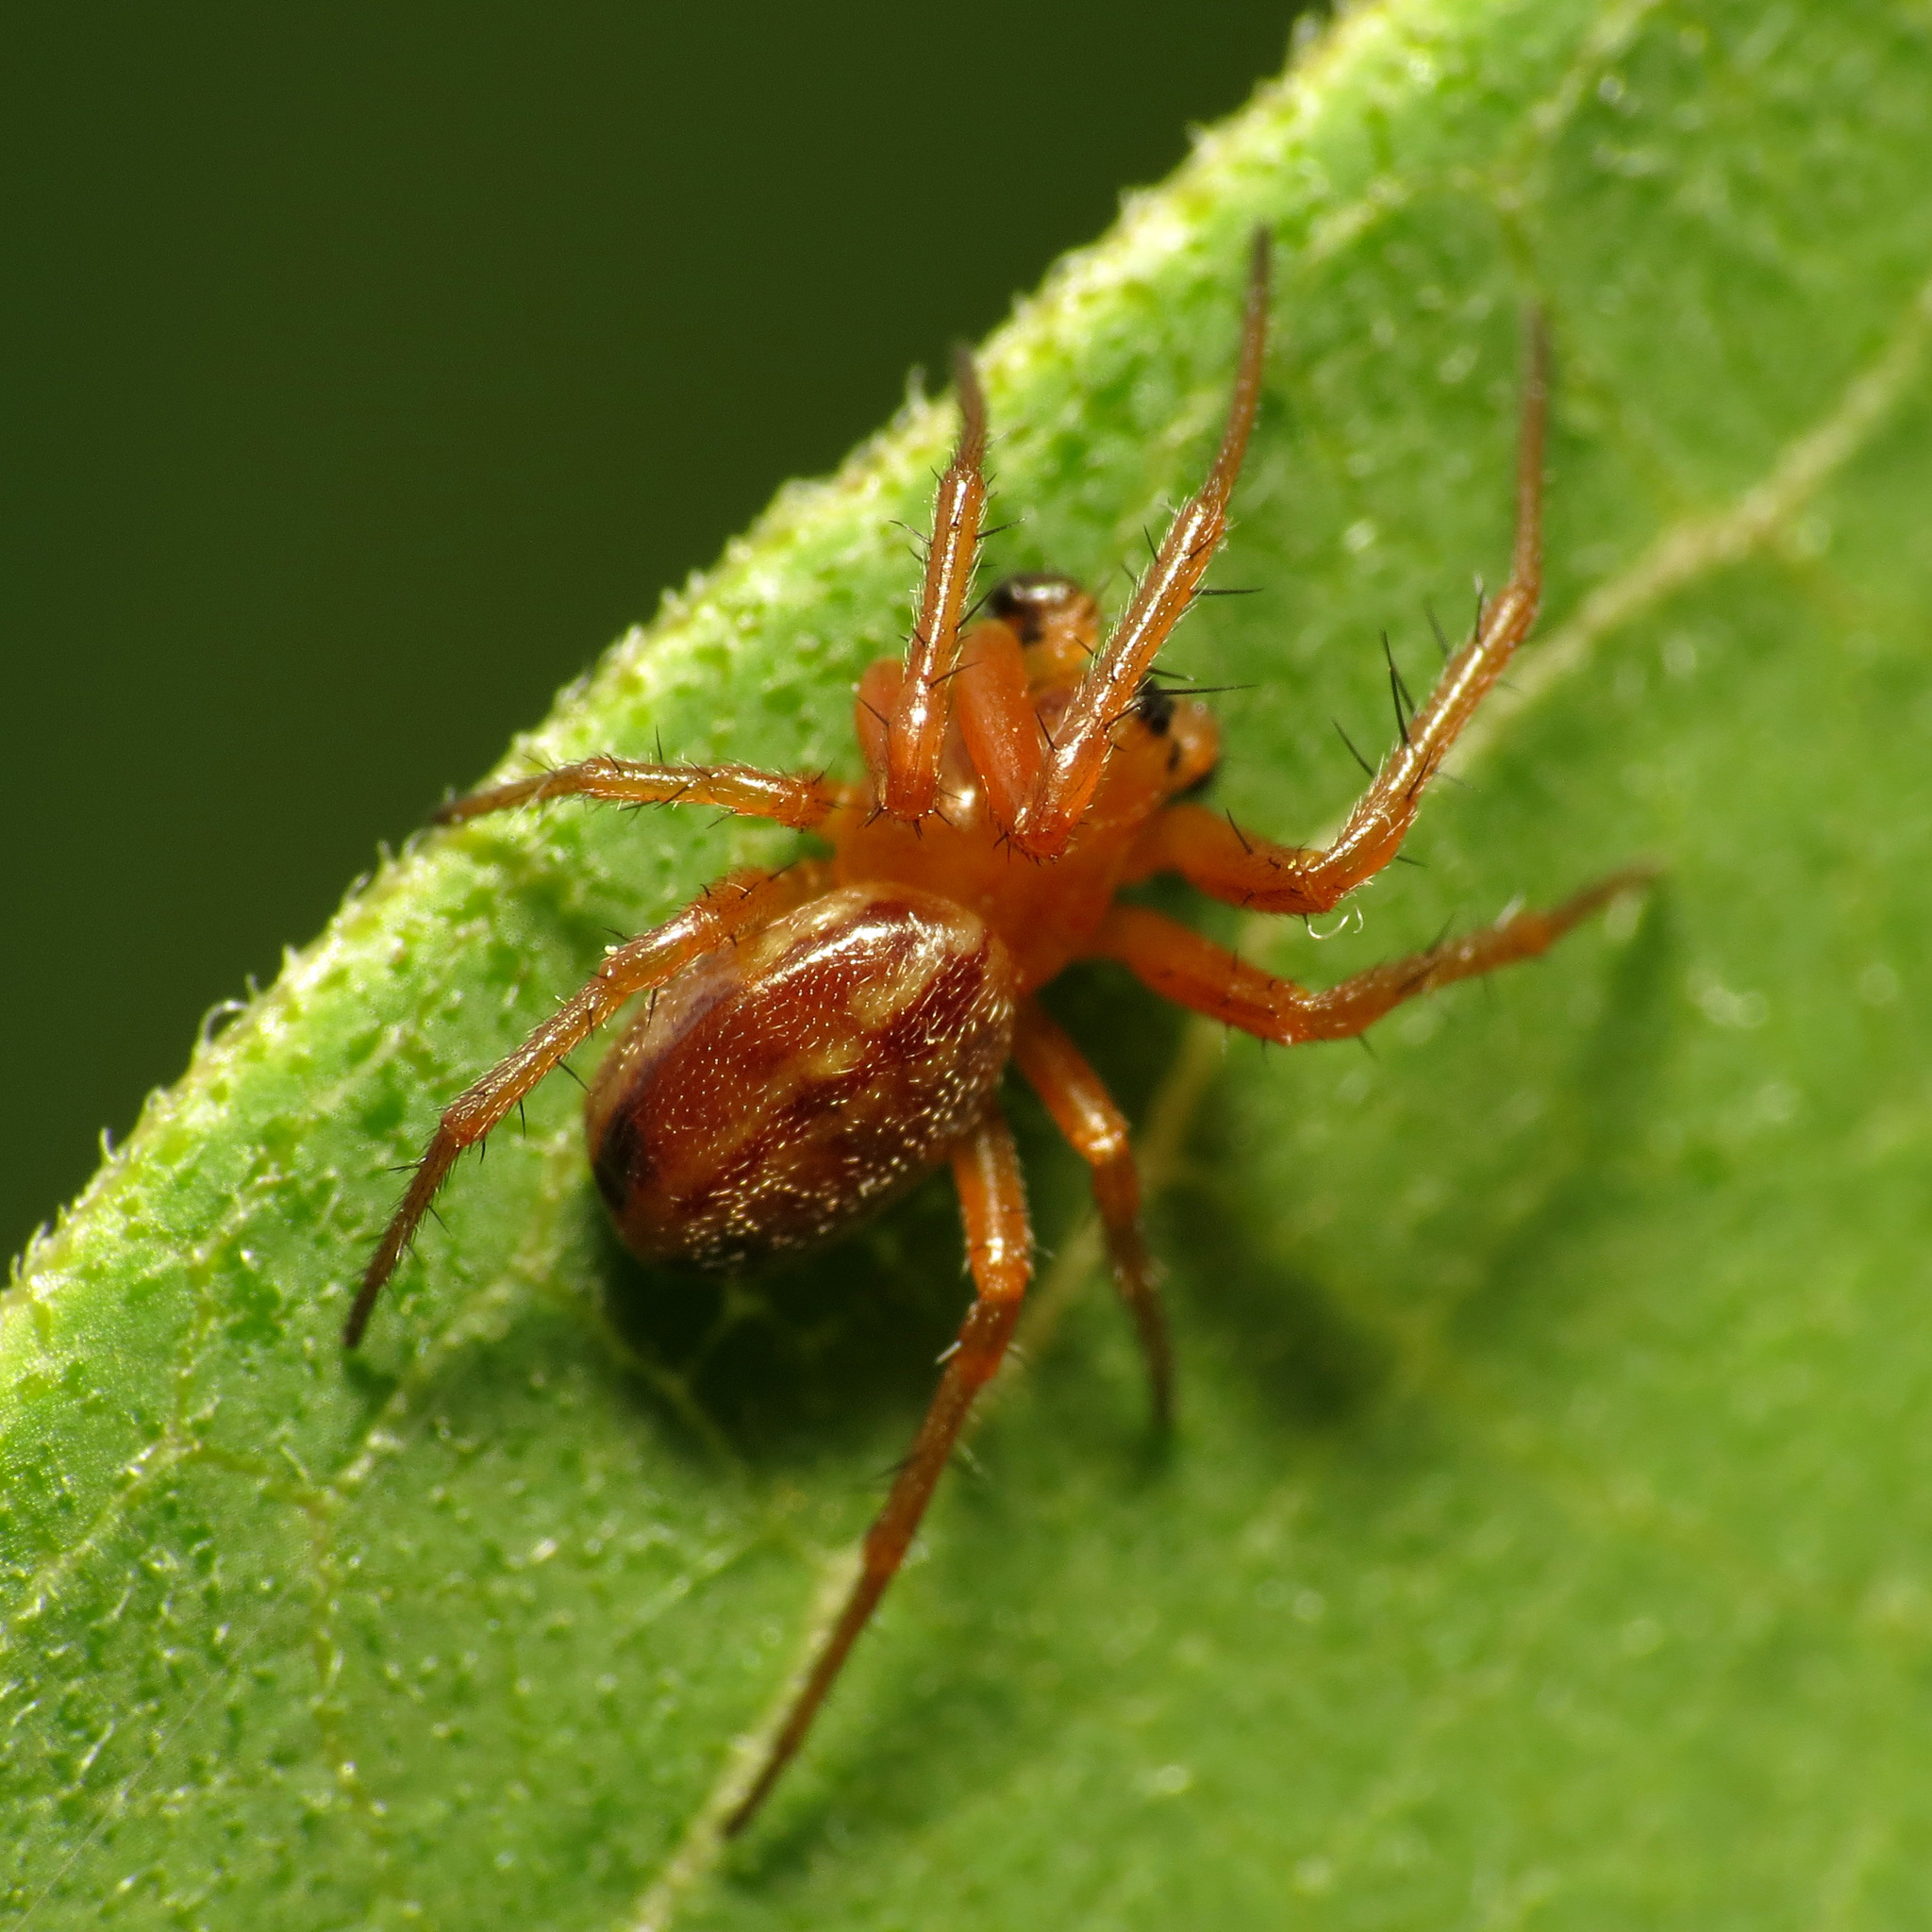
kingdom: Animalia
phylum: Arthropoda
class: Arachnida
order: Araneae
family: Araneidae
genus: Araneus
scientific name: Araneus pratensis
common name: Openfield orbweaver
